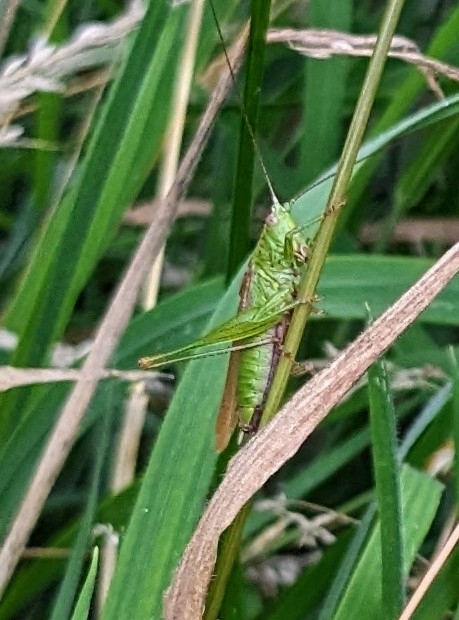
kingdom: Animalia
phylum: Arthropoda
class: Insecta
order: Orthoptera
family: Tettigoniidae
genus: Conocephalus
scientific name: Conocephalus fuscus
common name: Long-winged conehead
